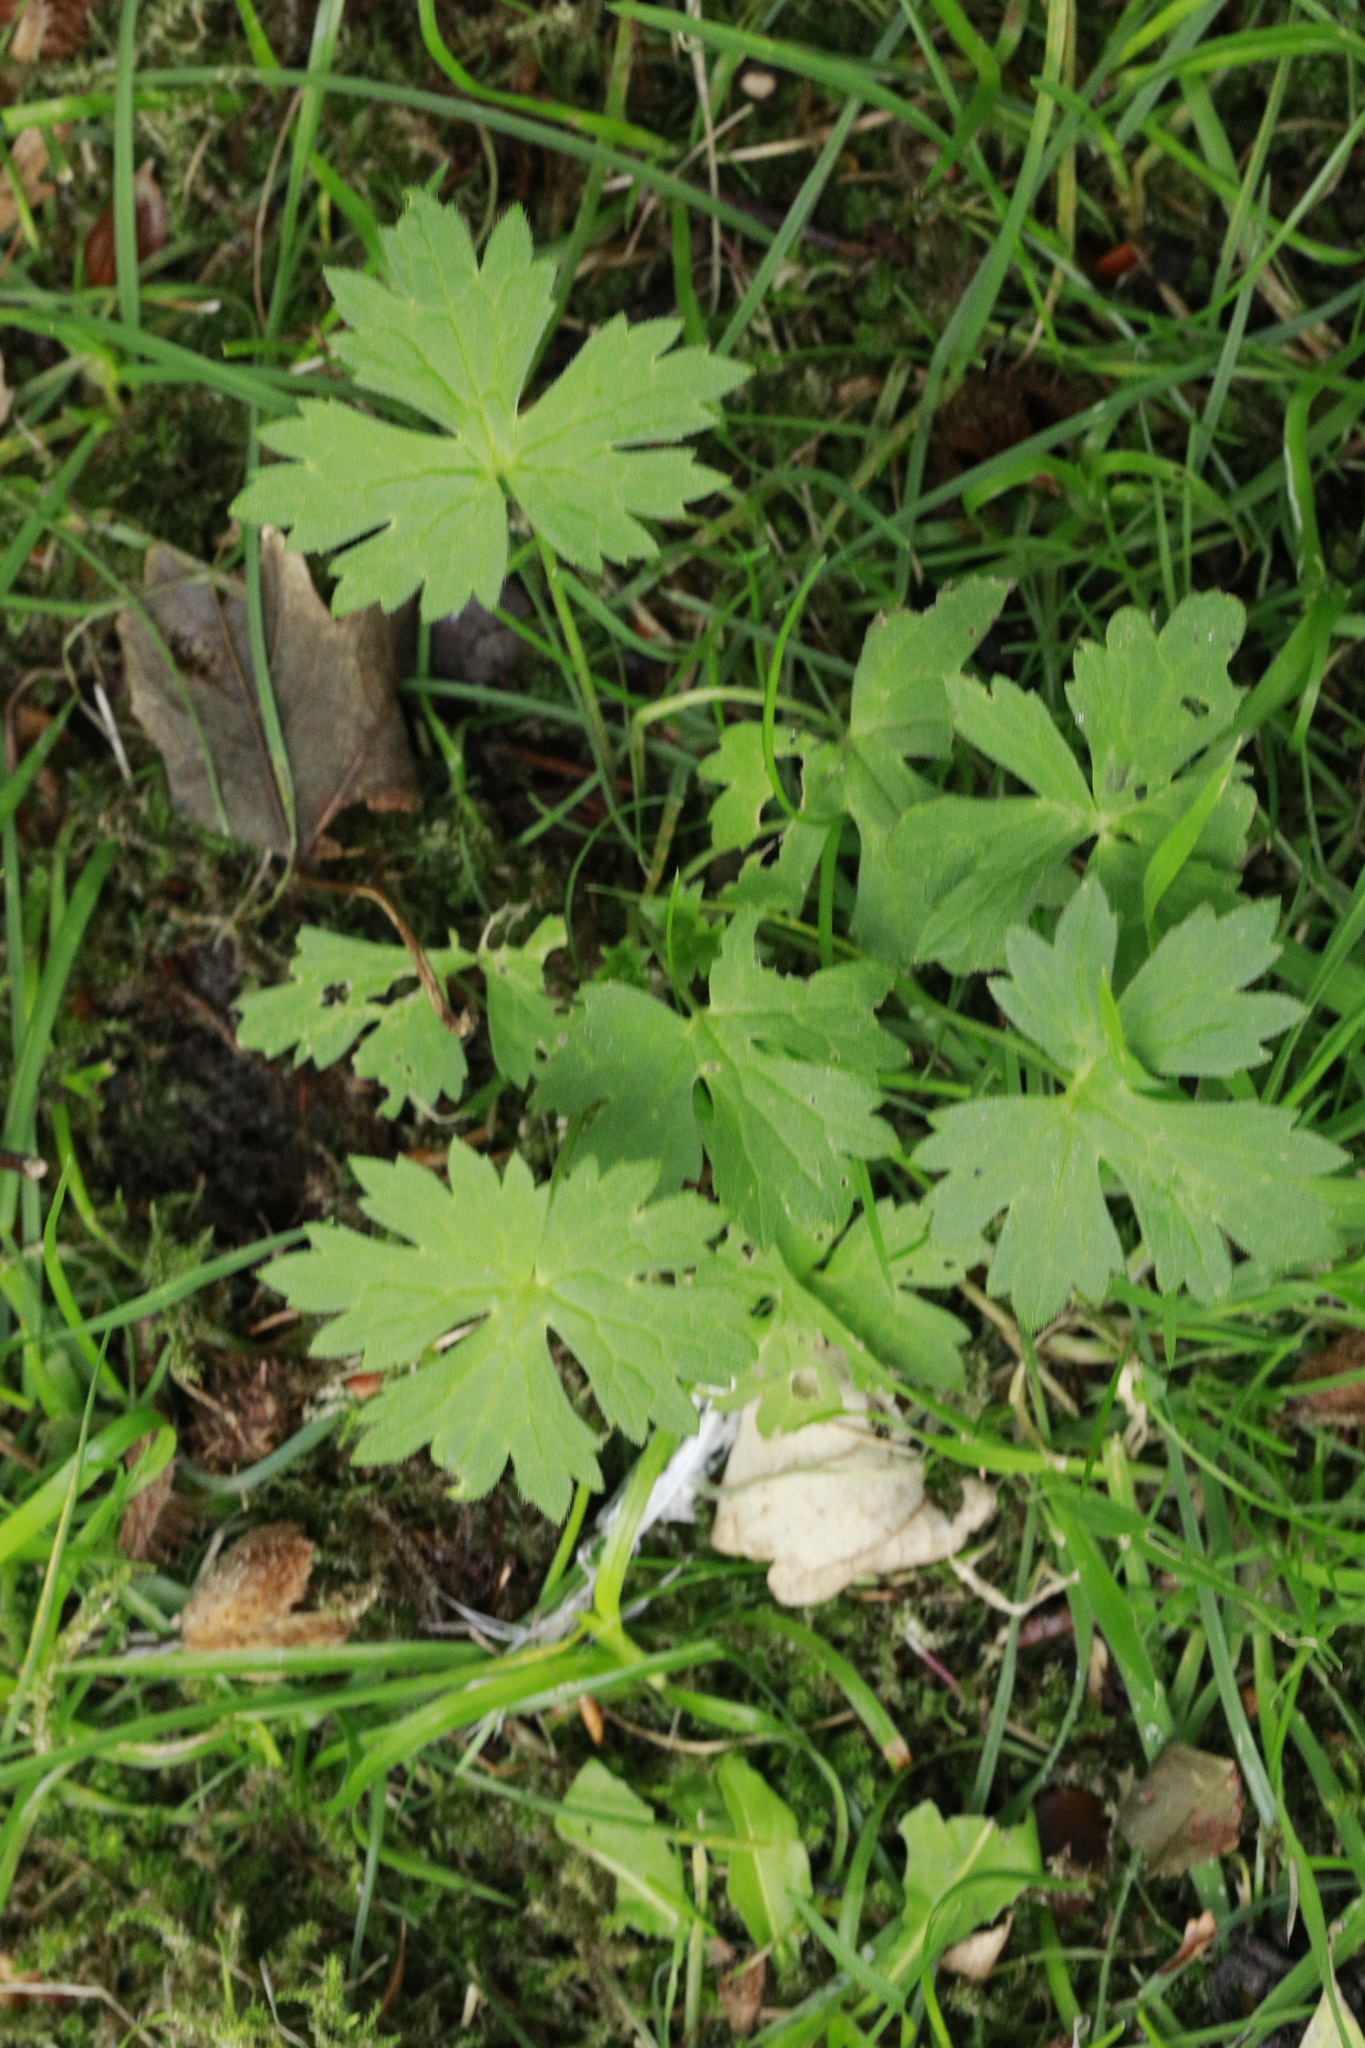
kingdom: Plantae
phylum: Tracheophyta
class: Magnoliopsida
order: Ranunculales
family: Ranunculaceae
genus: Ranunculus
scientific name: Ranunculus repens
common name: Creeping buttercup
